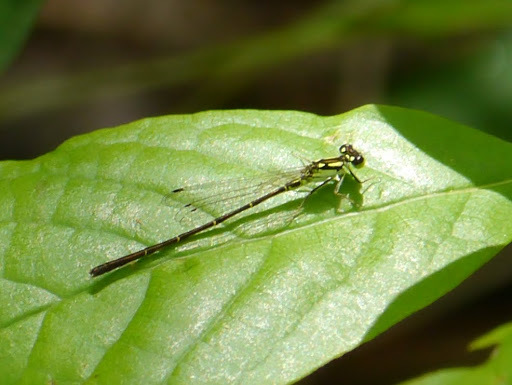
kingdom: Animalia
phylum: Arthropoda
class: Insecta
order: Odonata
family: Coenagrionidae
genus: Ischnura
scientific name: Ischnura posita
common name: Fragile forktail
